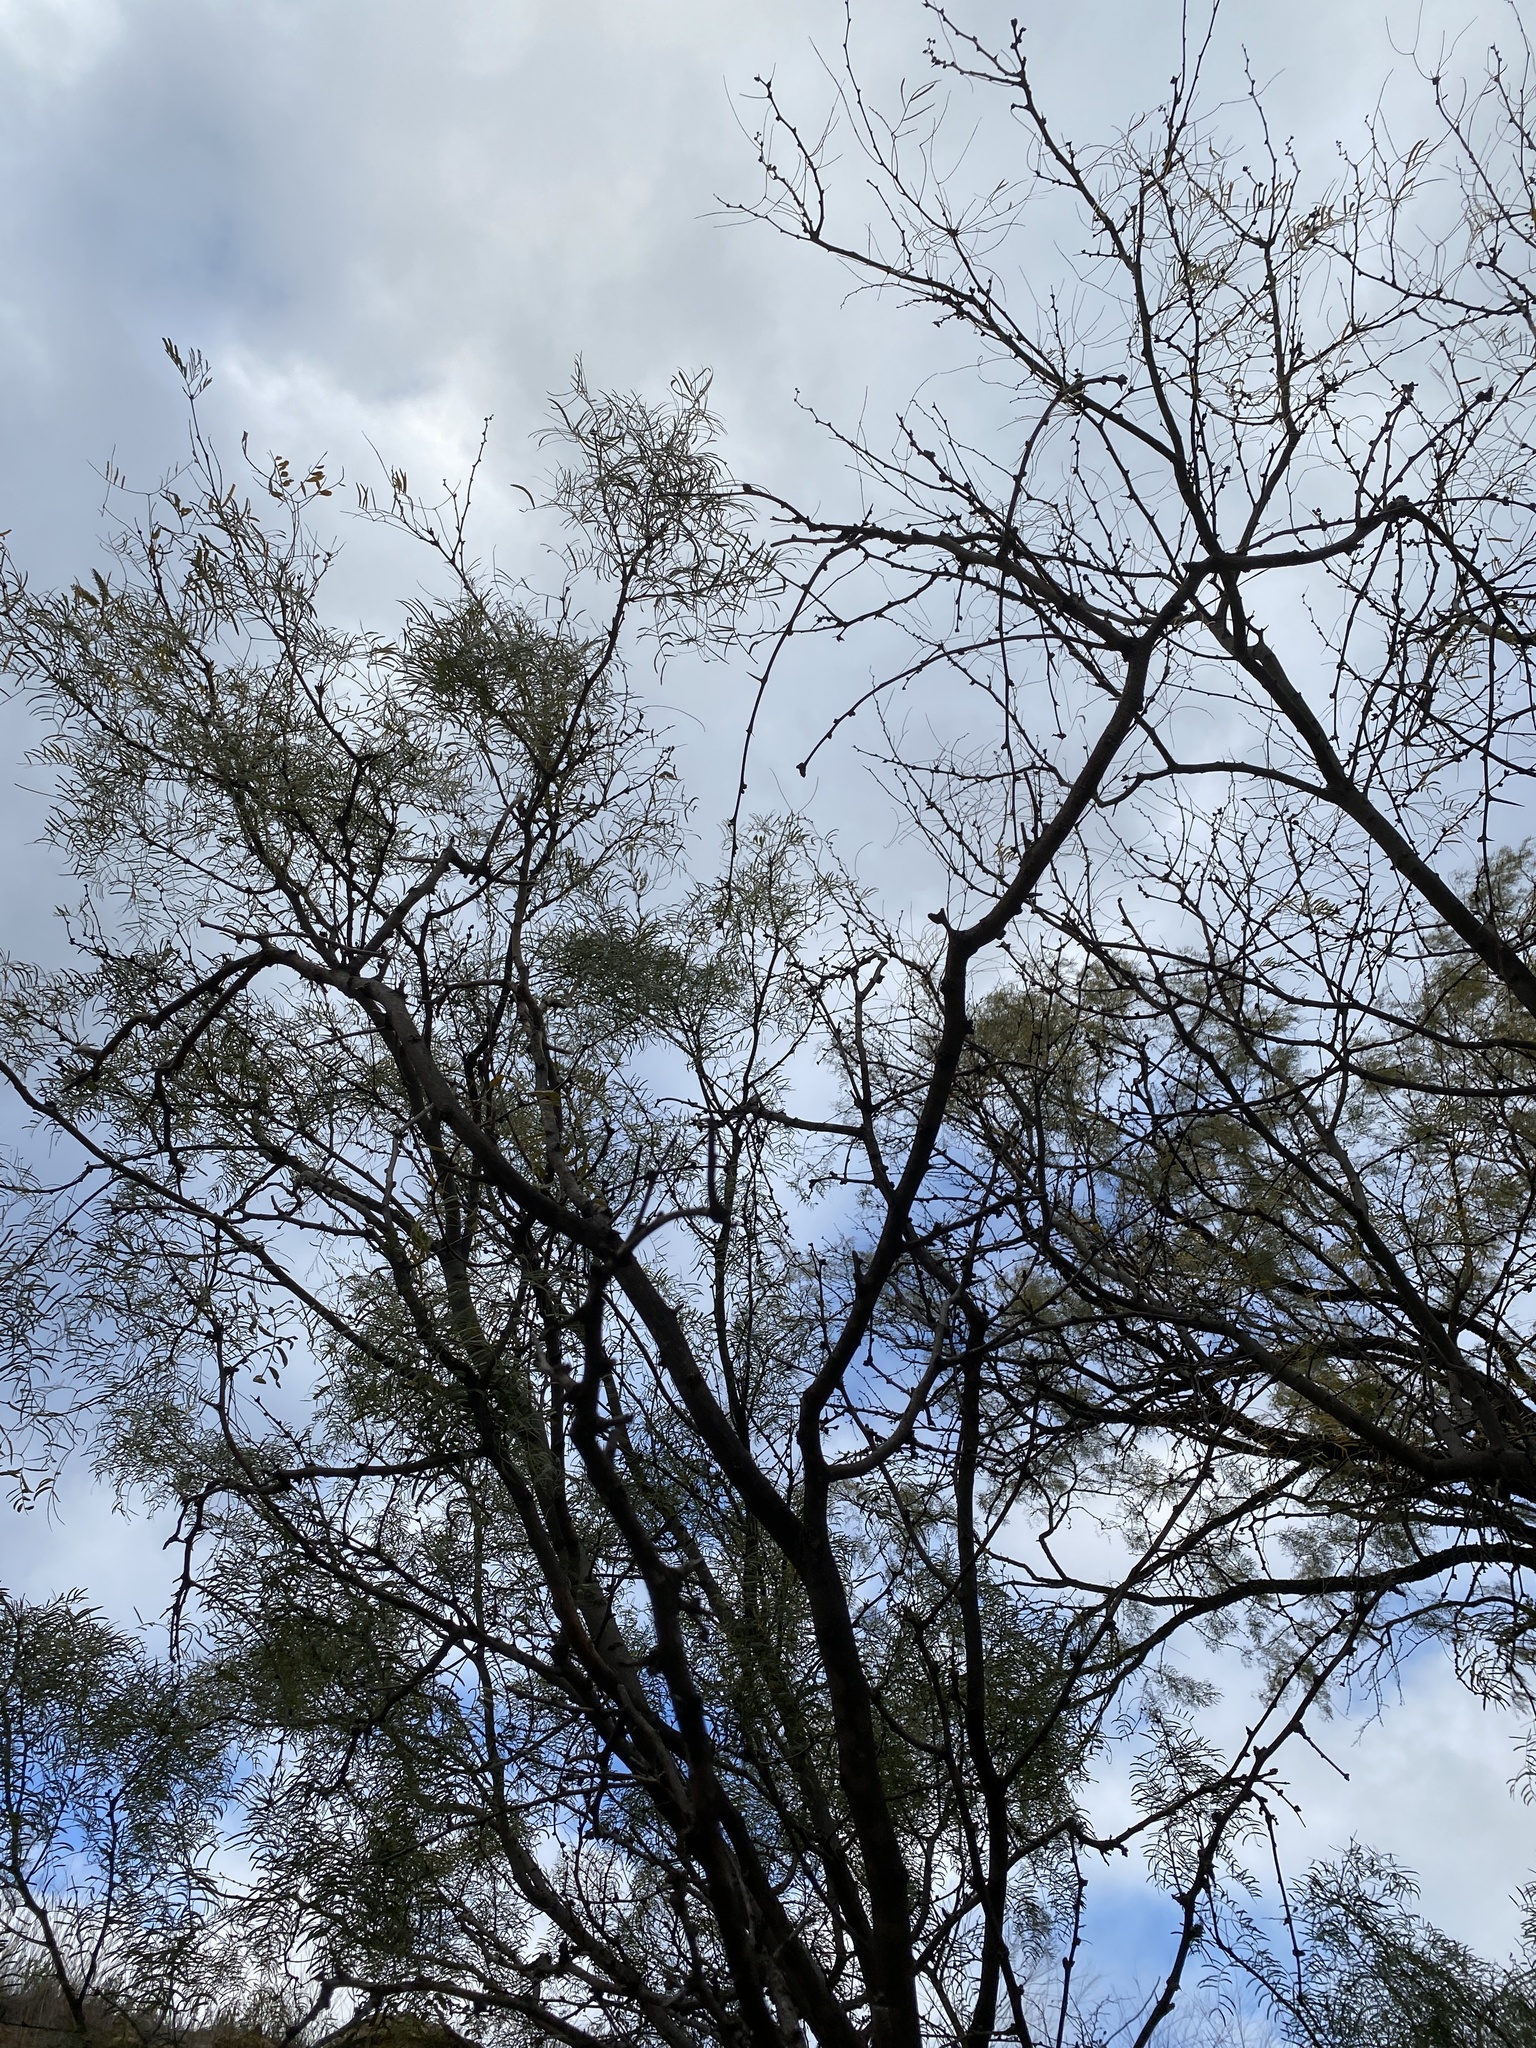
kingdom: Plantae
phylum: Tracheophyta
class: Magnoliopsida
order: Fabales
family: Fabaceae
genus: Prosopis
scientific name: Prosopis glandulosa
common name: Honey mesquite
